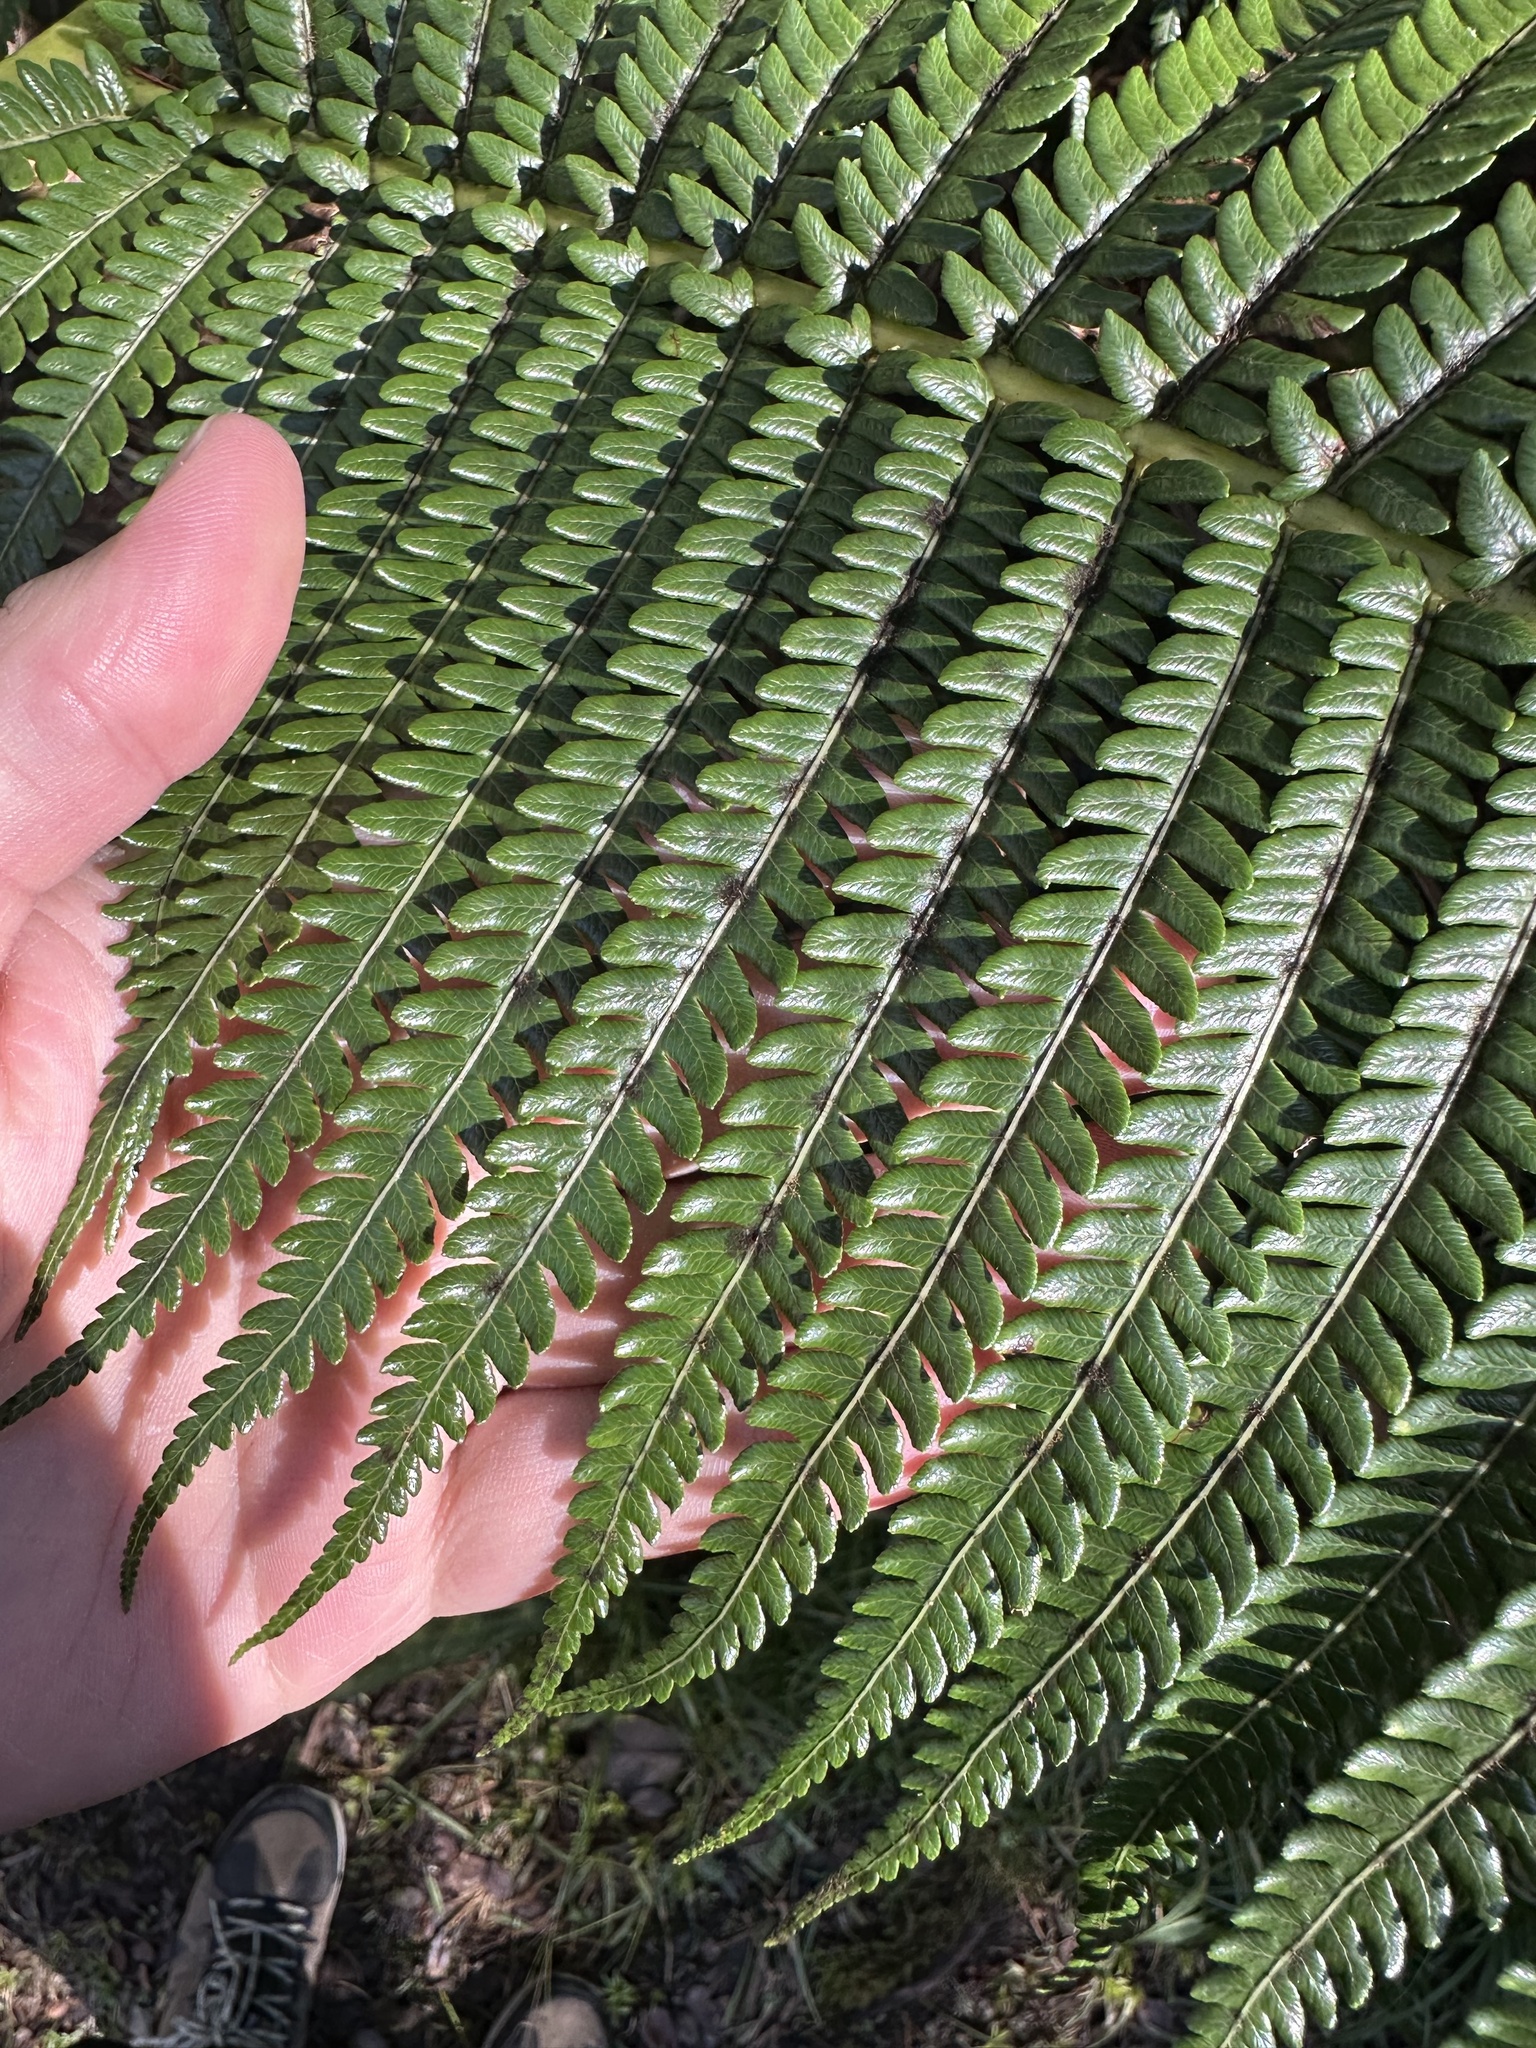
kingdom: Plantae
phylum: Tracheophyta
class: Polypodiopsida
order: Cyatheales
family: Cibotiaceae
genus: Cibotium
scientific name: Cibotium glaucum
